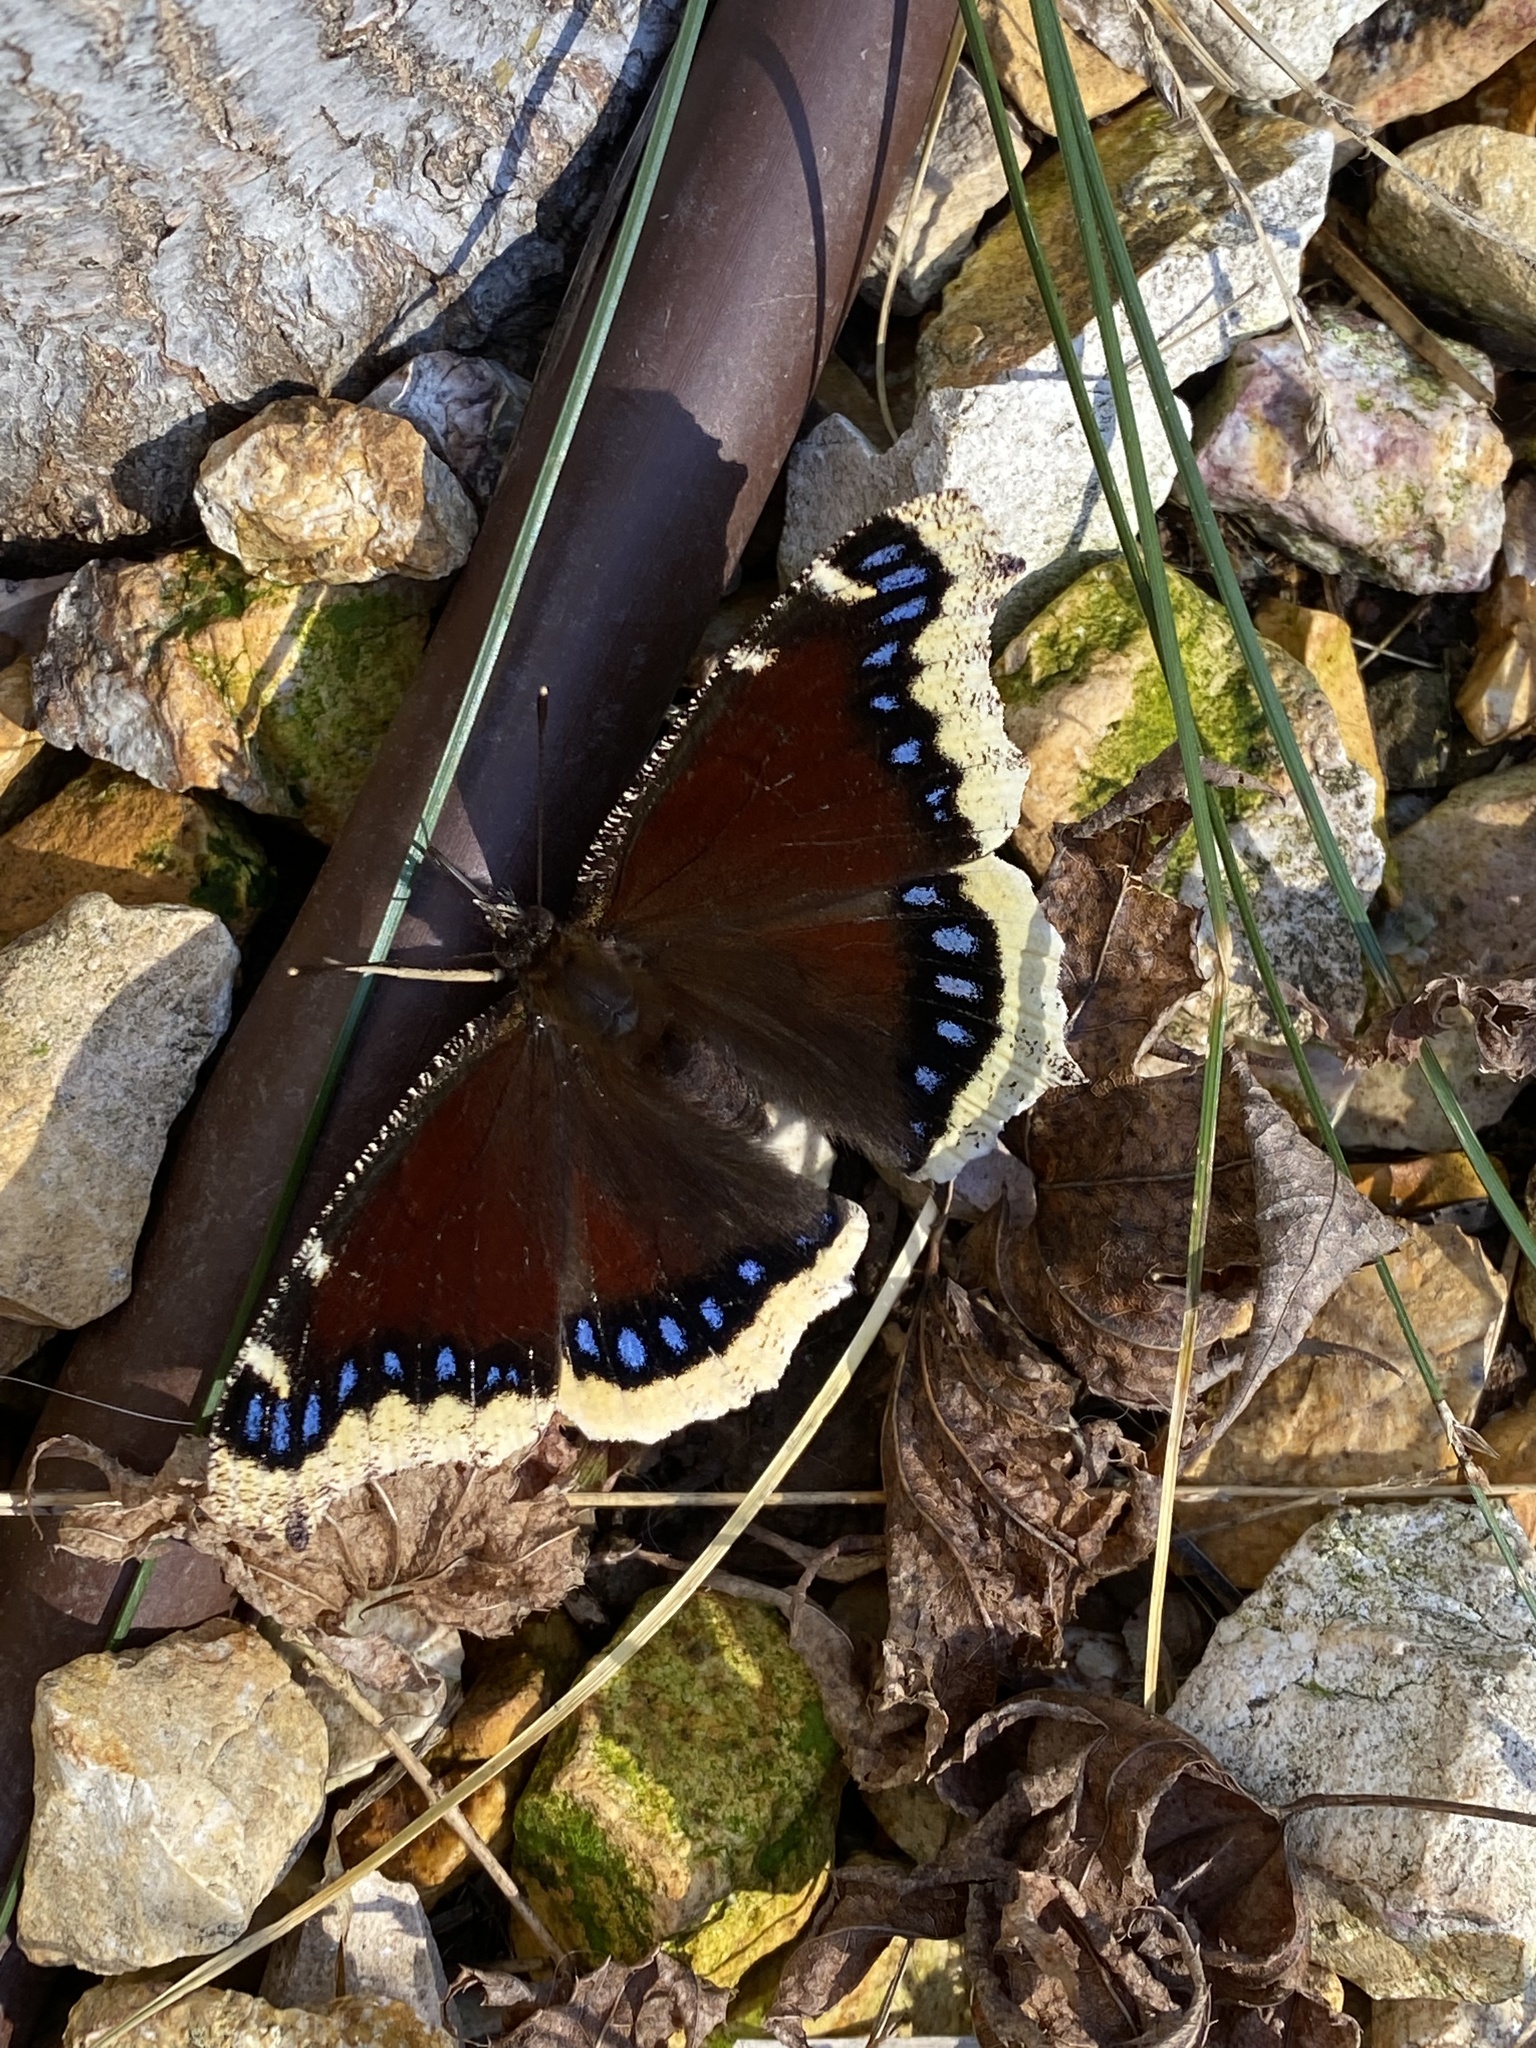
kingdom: Animalia
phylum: Arthropoda
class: Insecta
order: Lepidoptera
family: Nymphalidae
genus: Nymphalis
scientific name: Nymphalis antiopa
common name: Camberwell beauty
